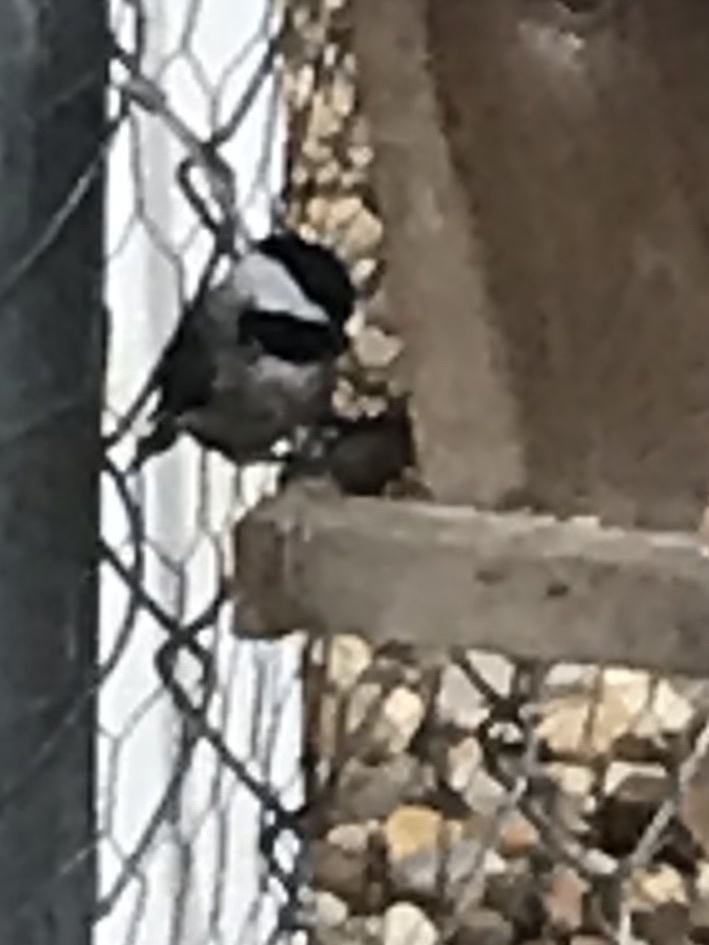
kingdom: Animalia
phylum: Chordata
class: Aves
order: Passeriformes
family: Paridae
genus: Poecile
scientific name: Poecile carolinensis
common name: Carolina chickadee
